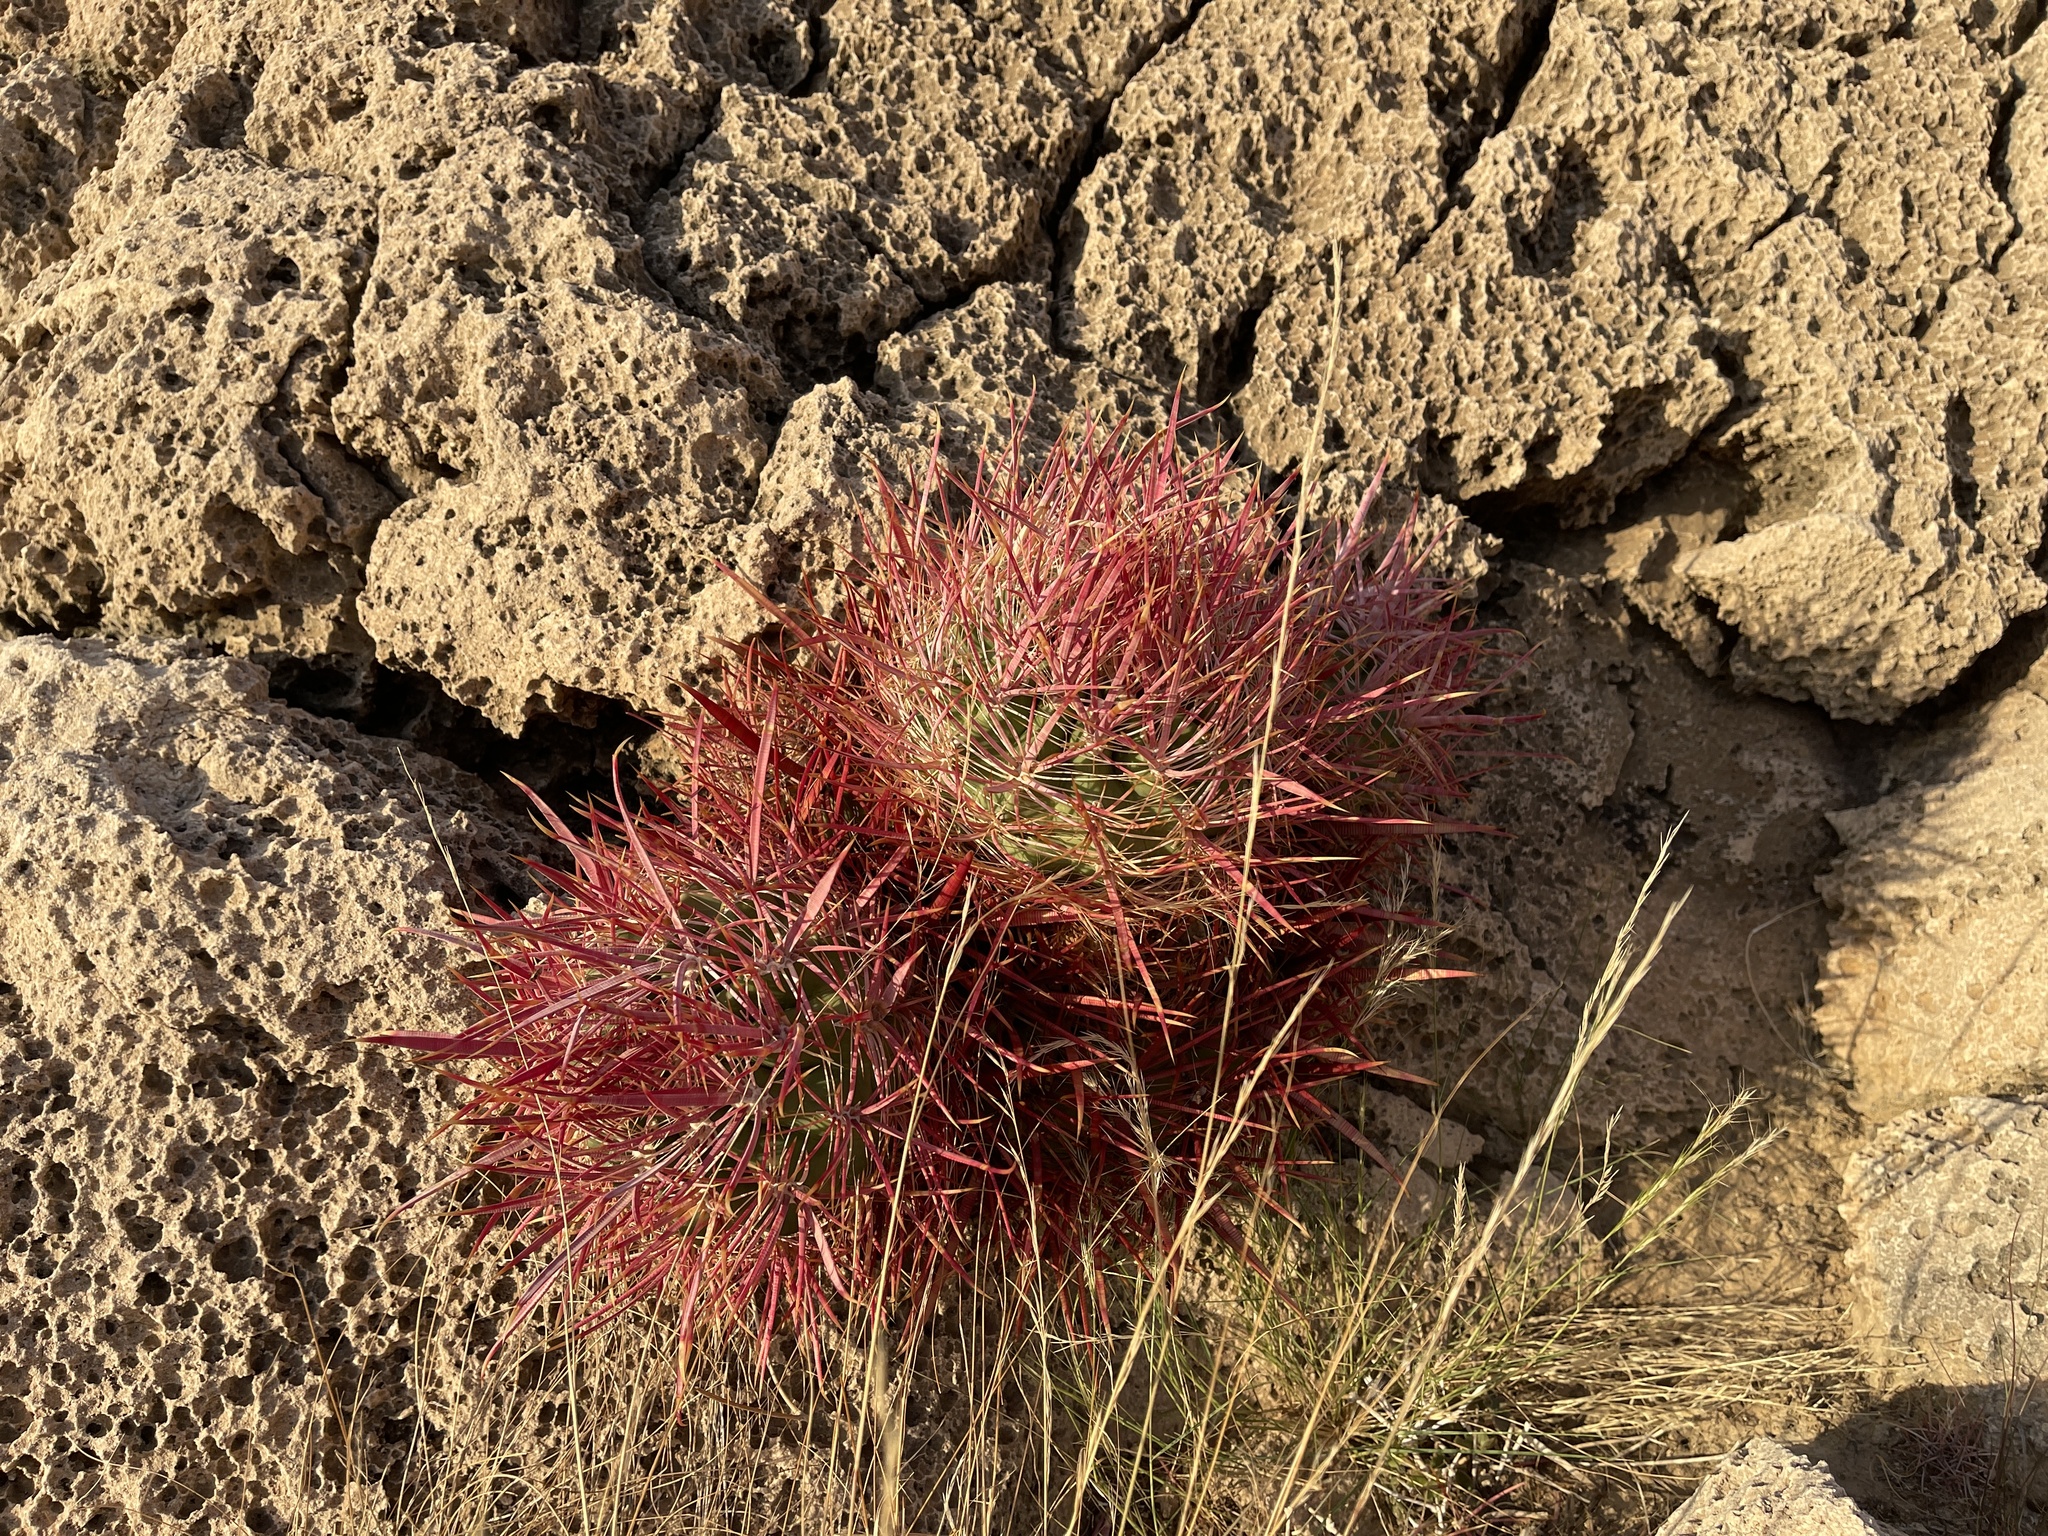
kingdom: Plantae
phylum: Tracheophyta
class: Magnoliopsida
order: Caryophyllales
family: Cactaceae
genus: Ferocactus
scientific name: Ferocactus cylindraceus
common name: California barrel cactus
